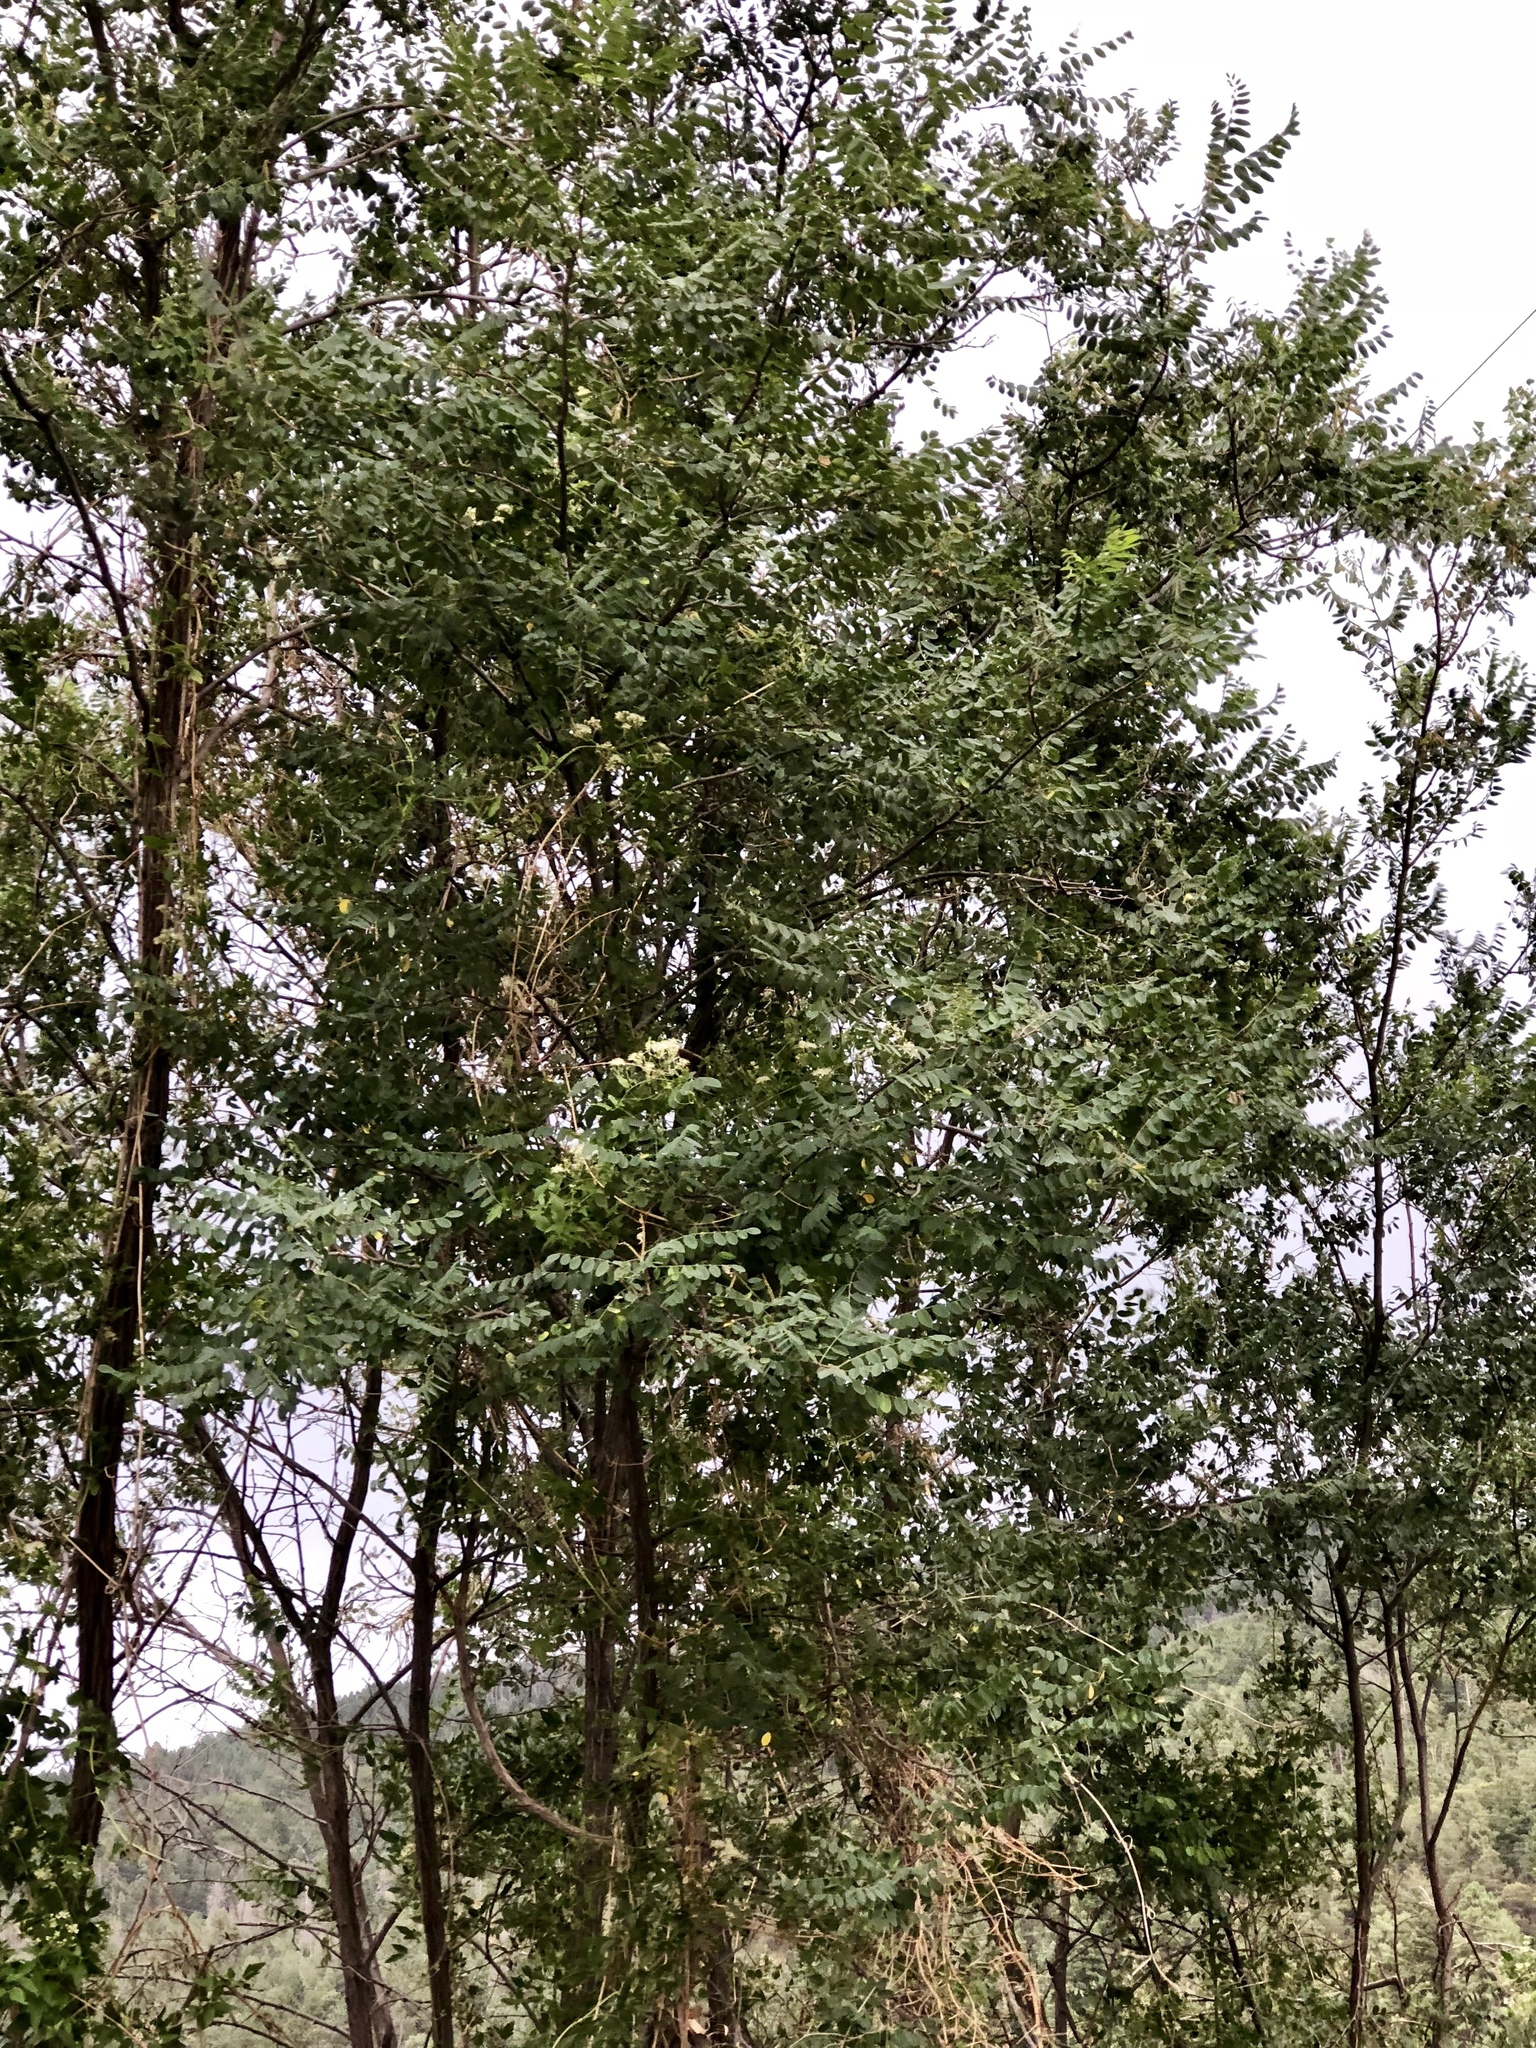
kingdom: Plantae
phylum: Tracheophyta
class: Magnoliopsida
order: Fabales
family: Fabaceae
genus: Robinia
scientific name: Robinia neomexicana
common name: New mexico locust
